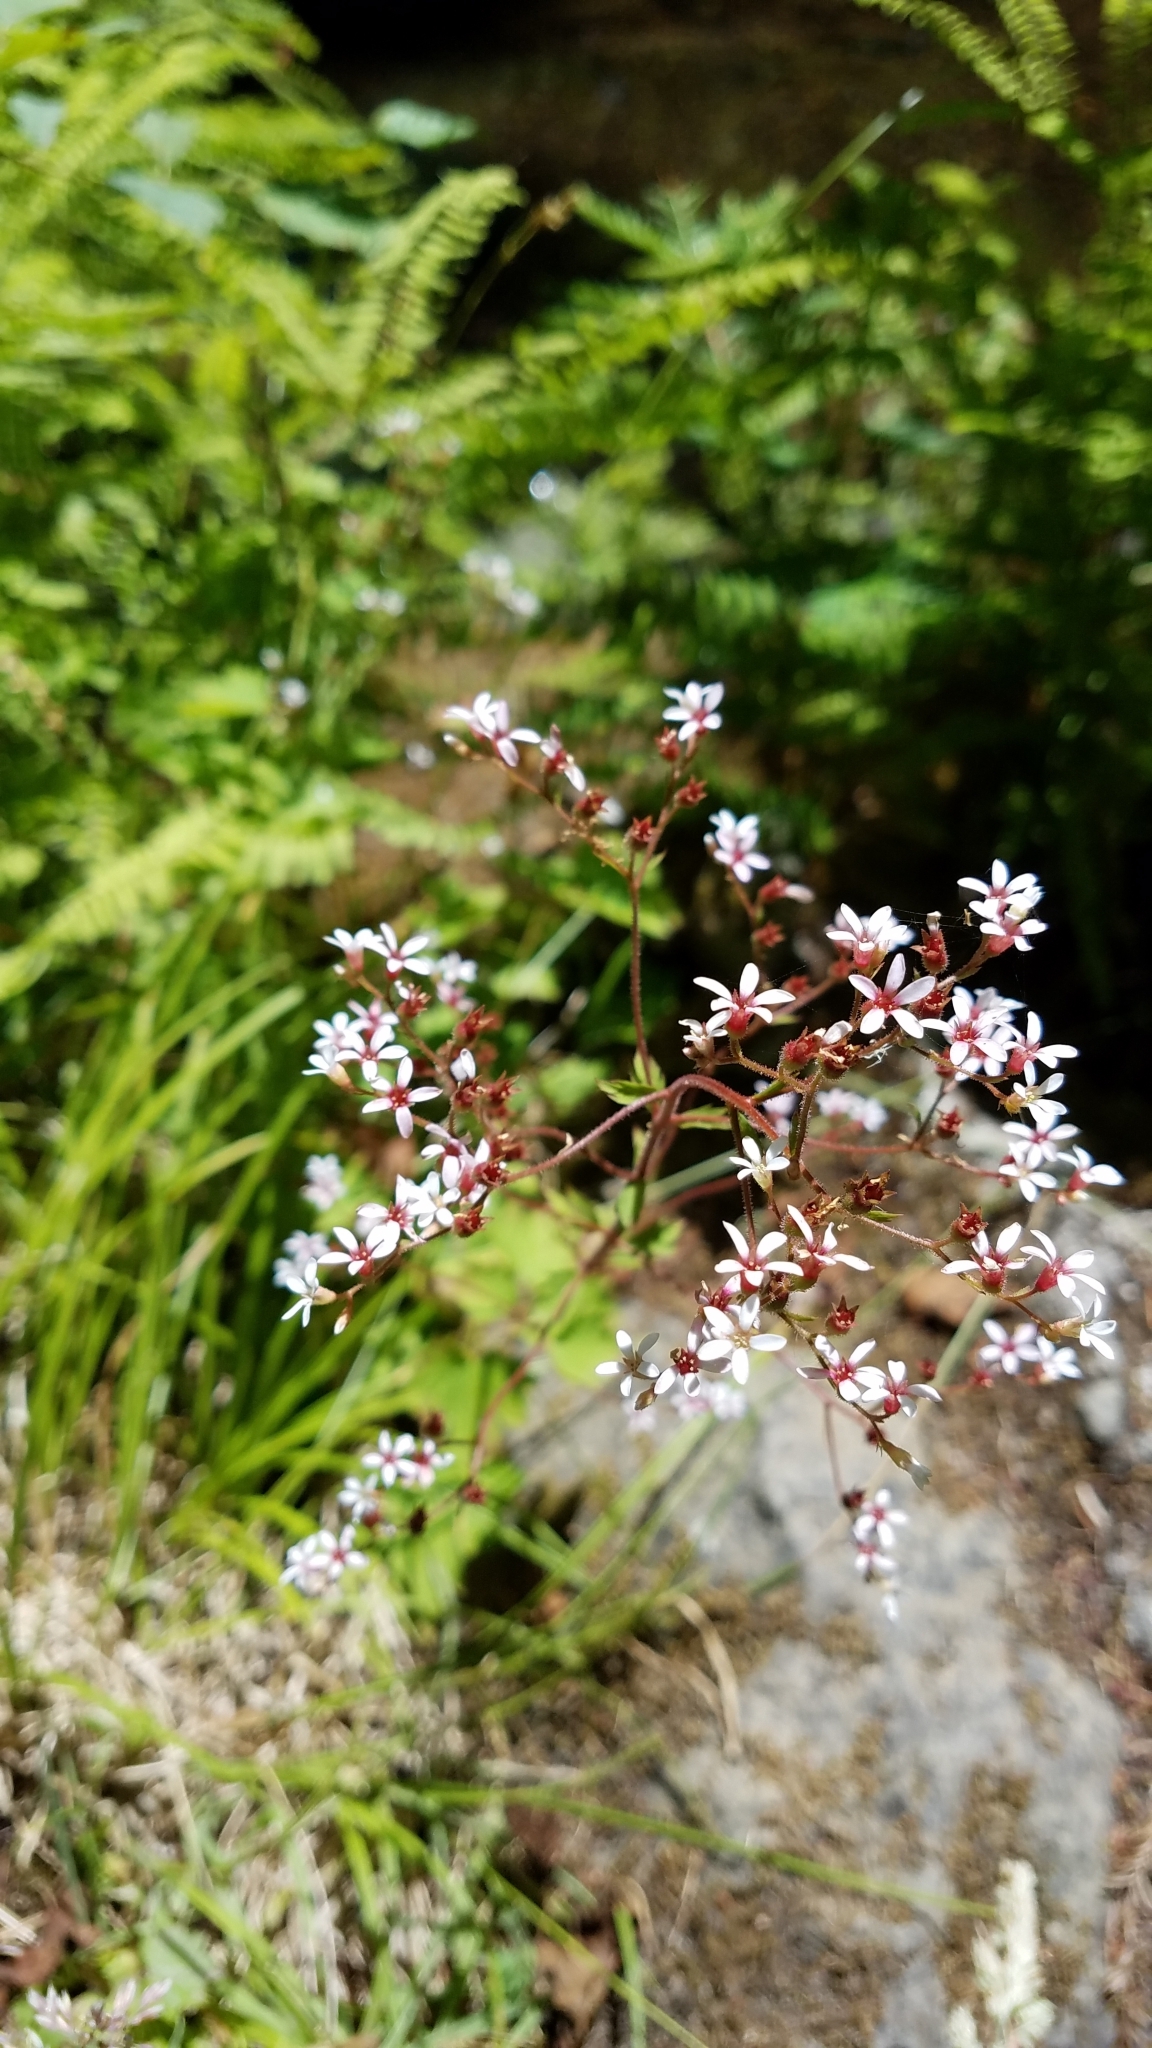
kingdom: Plantae
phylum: Tracheophyta
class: Magnoliopsida
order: Saxifragales
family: Saxifragaceae
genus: Boykinia
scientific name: Boykinia occidentalis
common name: Coast boykinia
